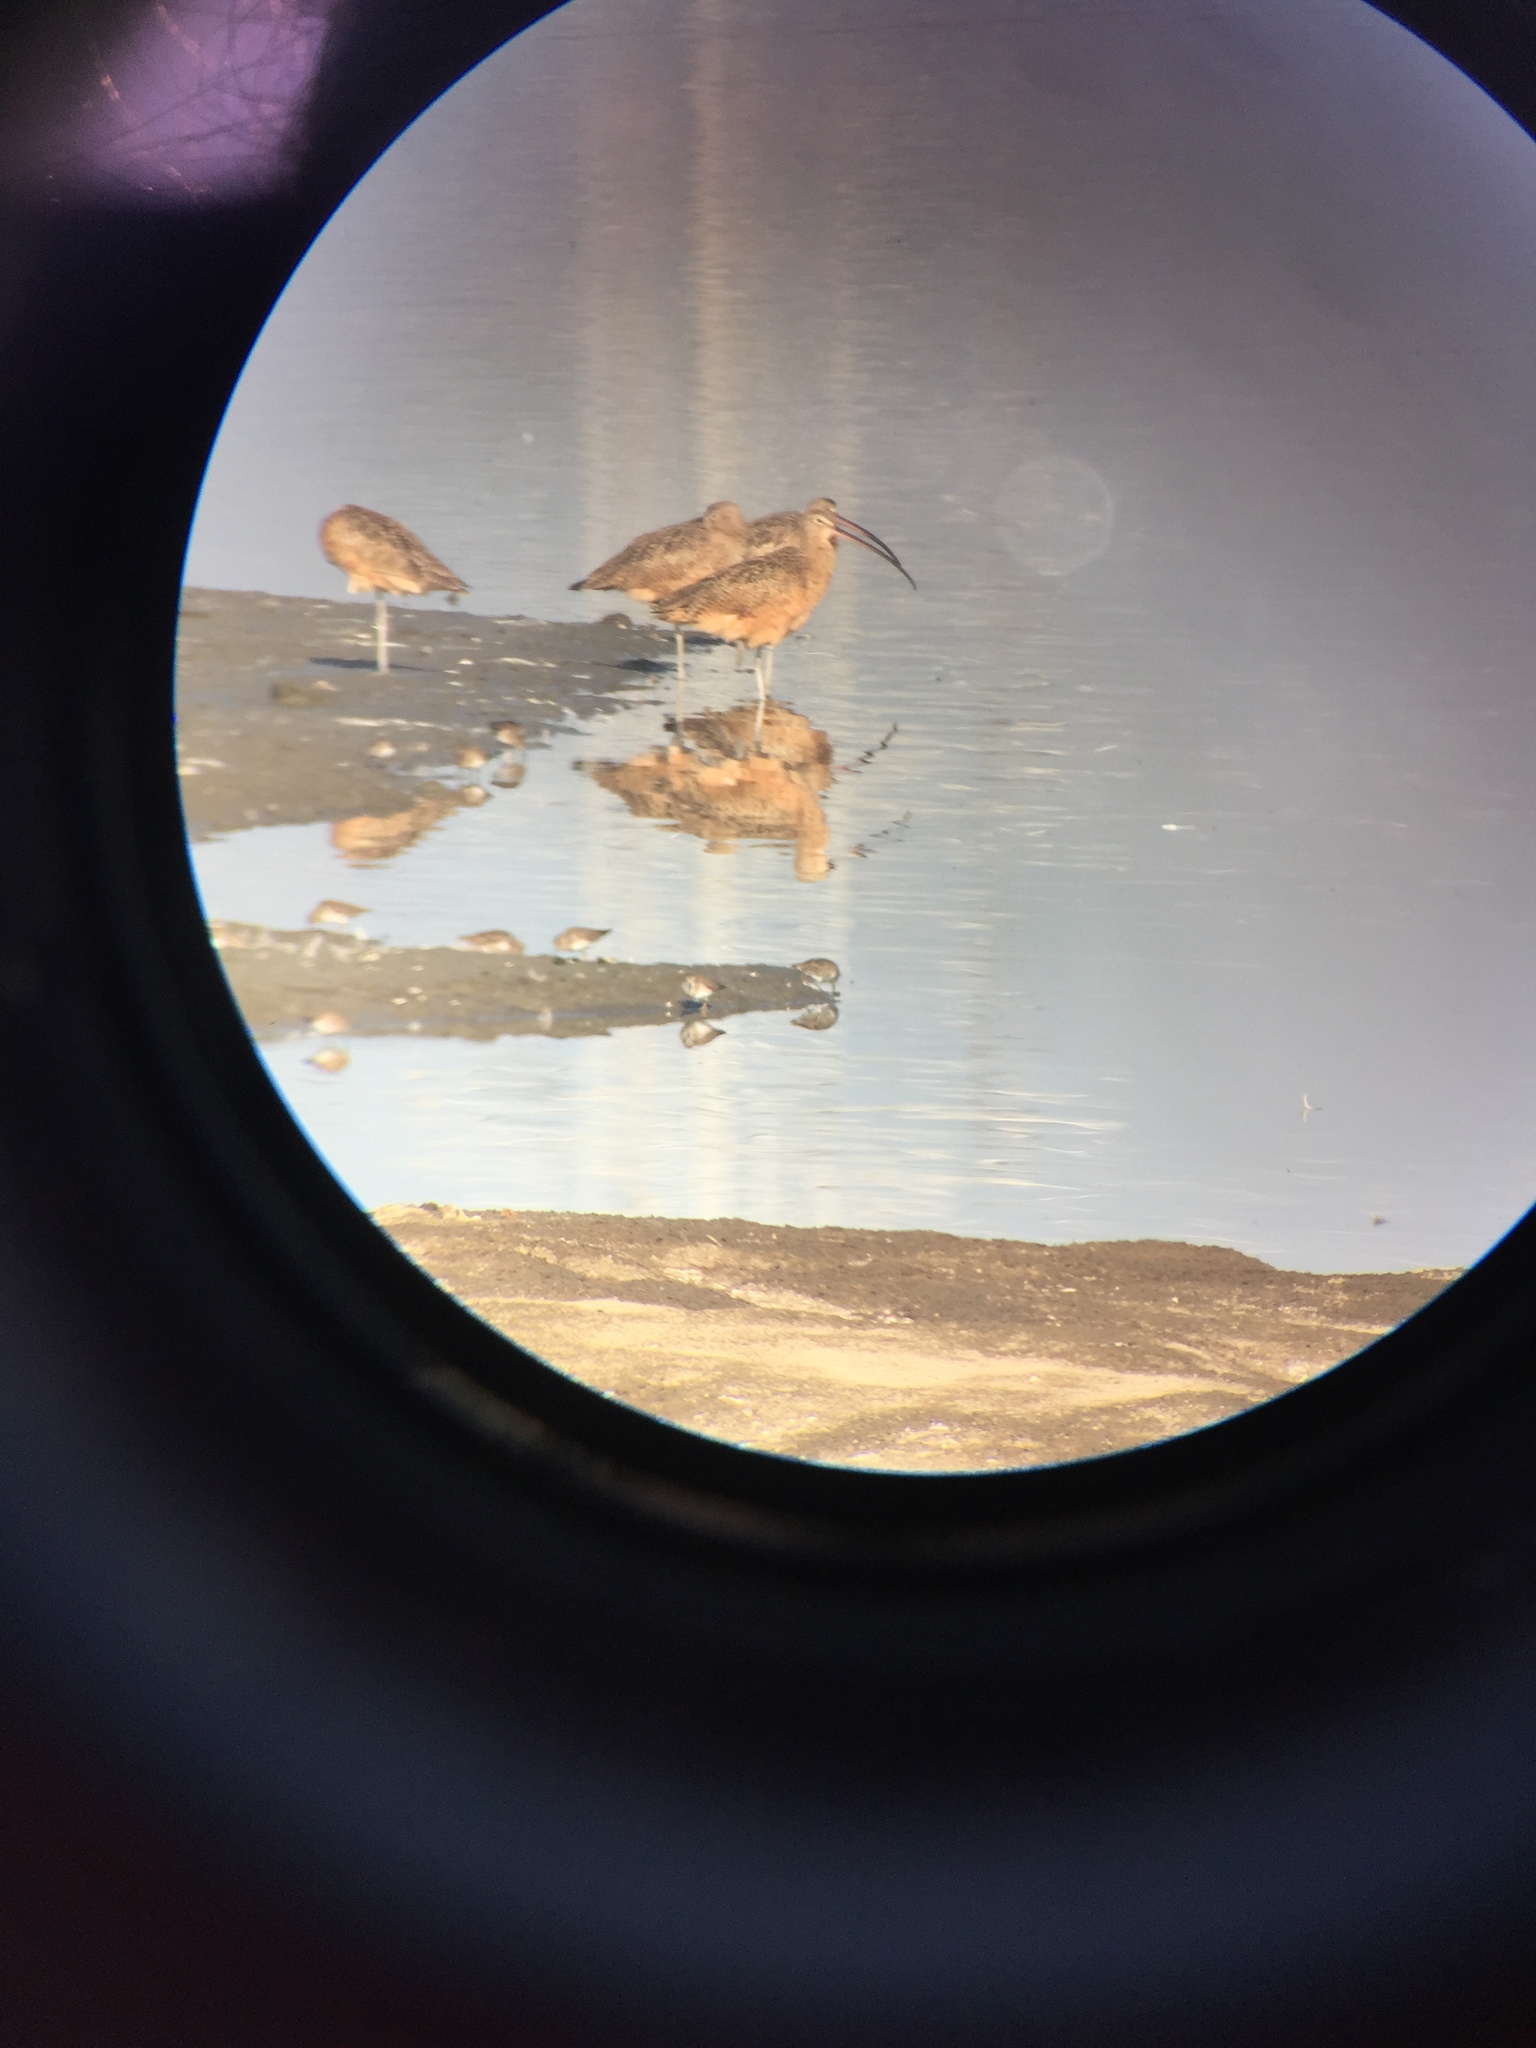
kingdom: Animalia
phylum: Chordata
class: Aves
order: Charadriiformes
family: Scolopacidae
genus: Numenius
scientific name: Numenius americanus
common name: Long-billed curlew
